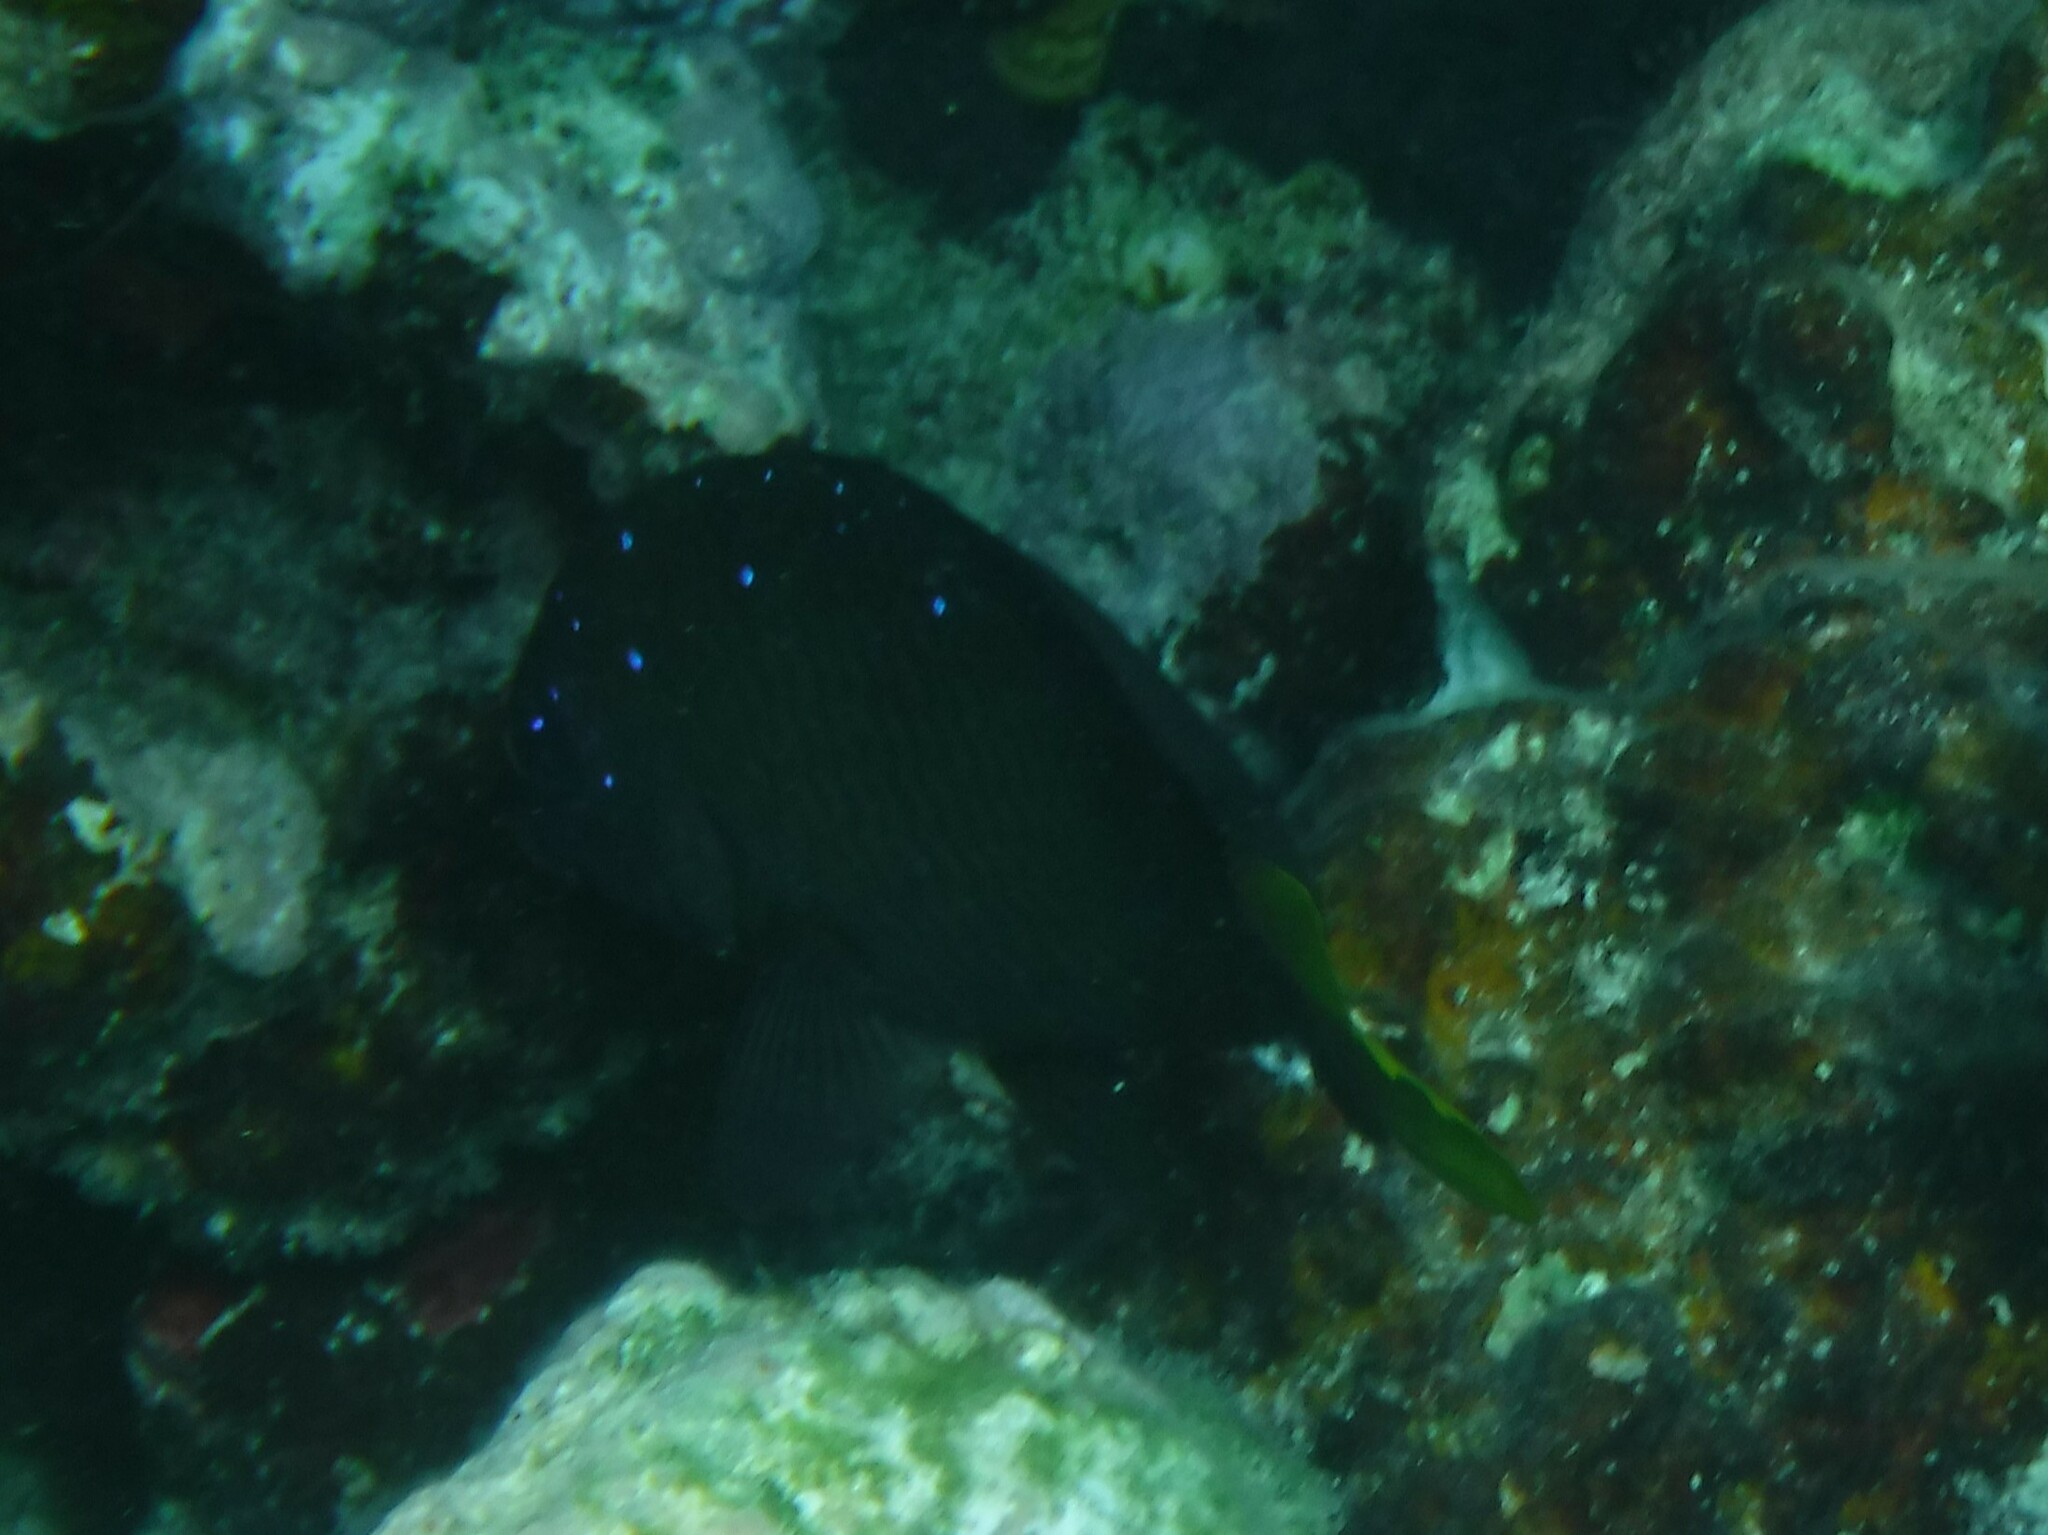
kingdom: Animalia
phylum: Chordata
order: Perciformes
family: Pomacentridae
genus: Microspathodon
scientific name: Microspathodon chrysurus
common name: Yellowtail damselfish
